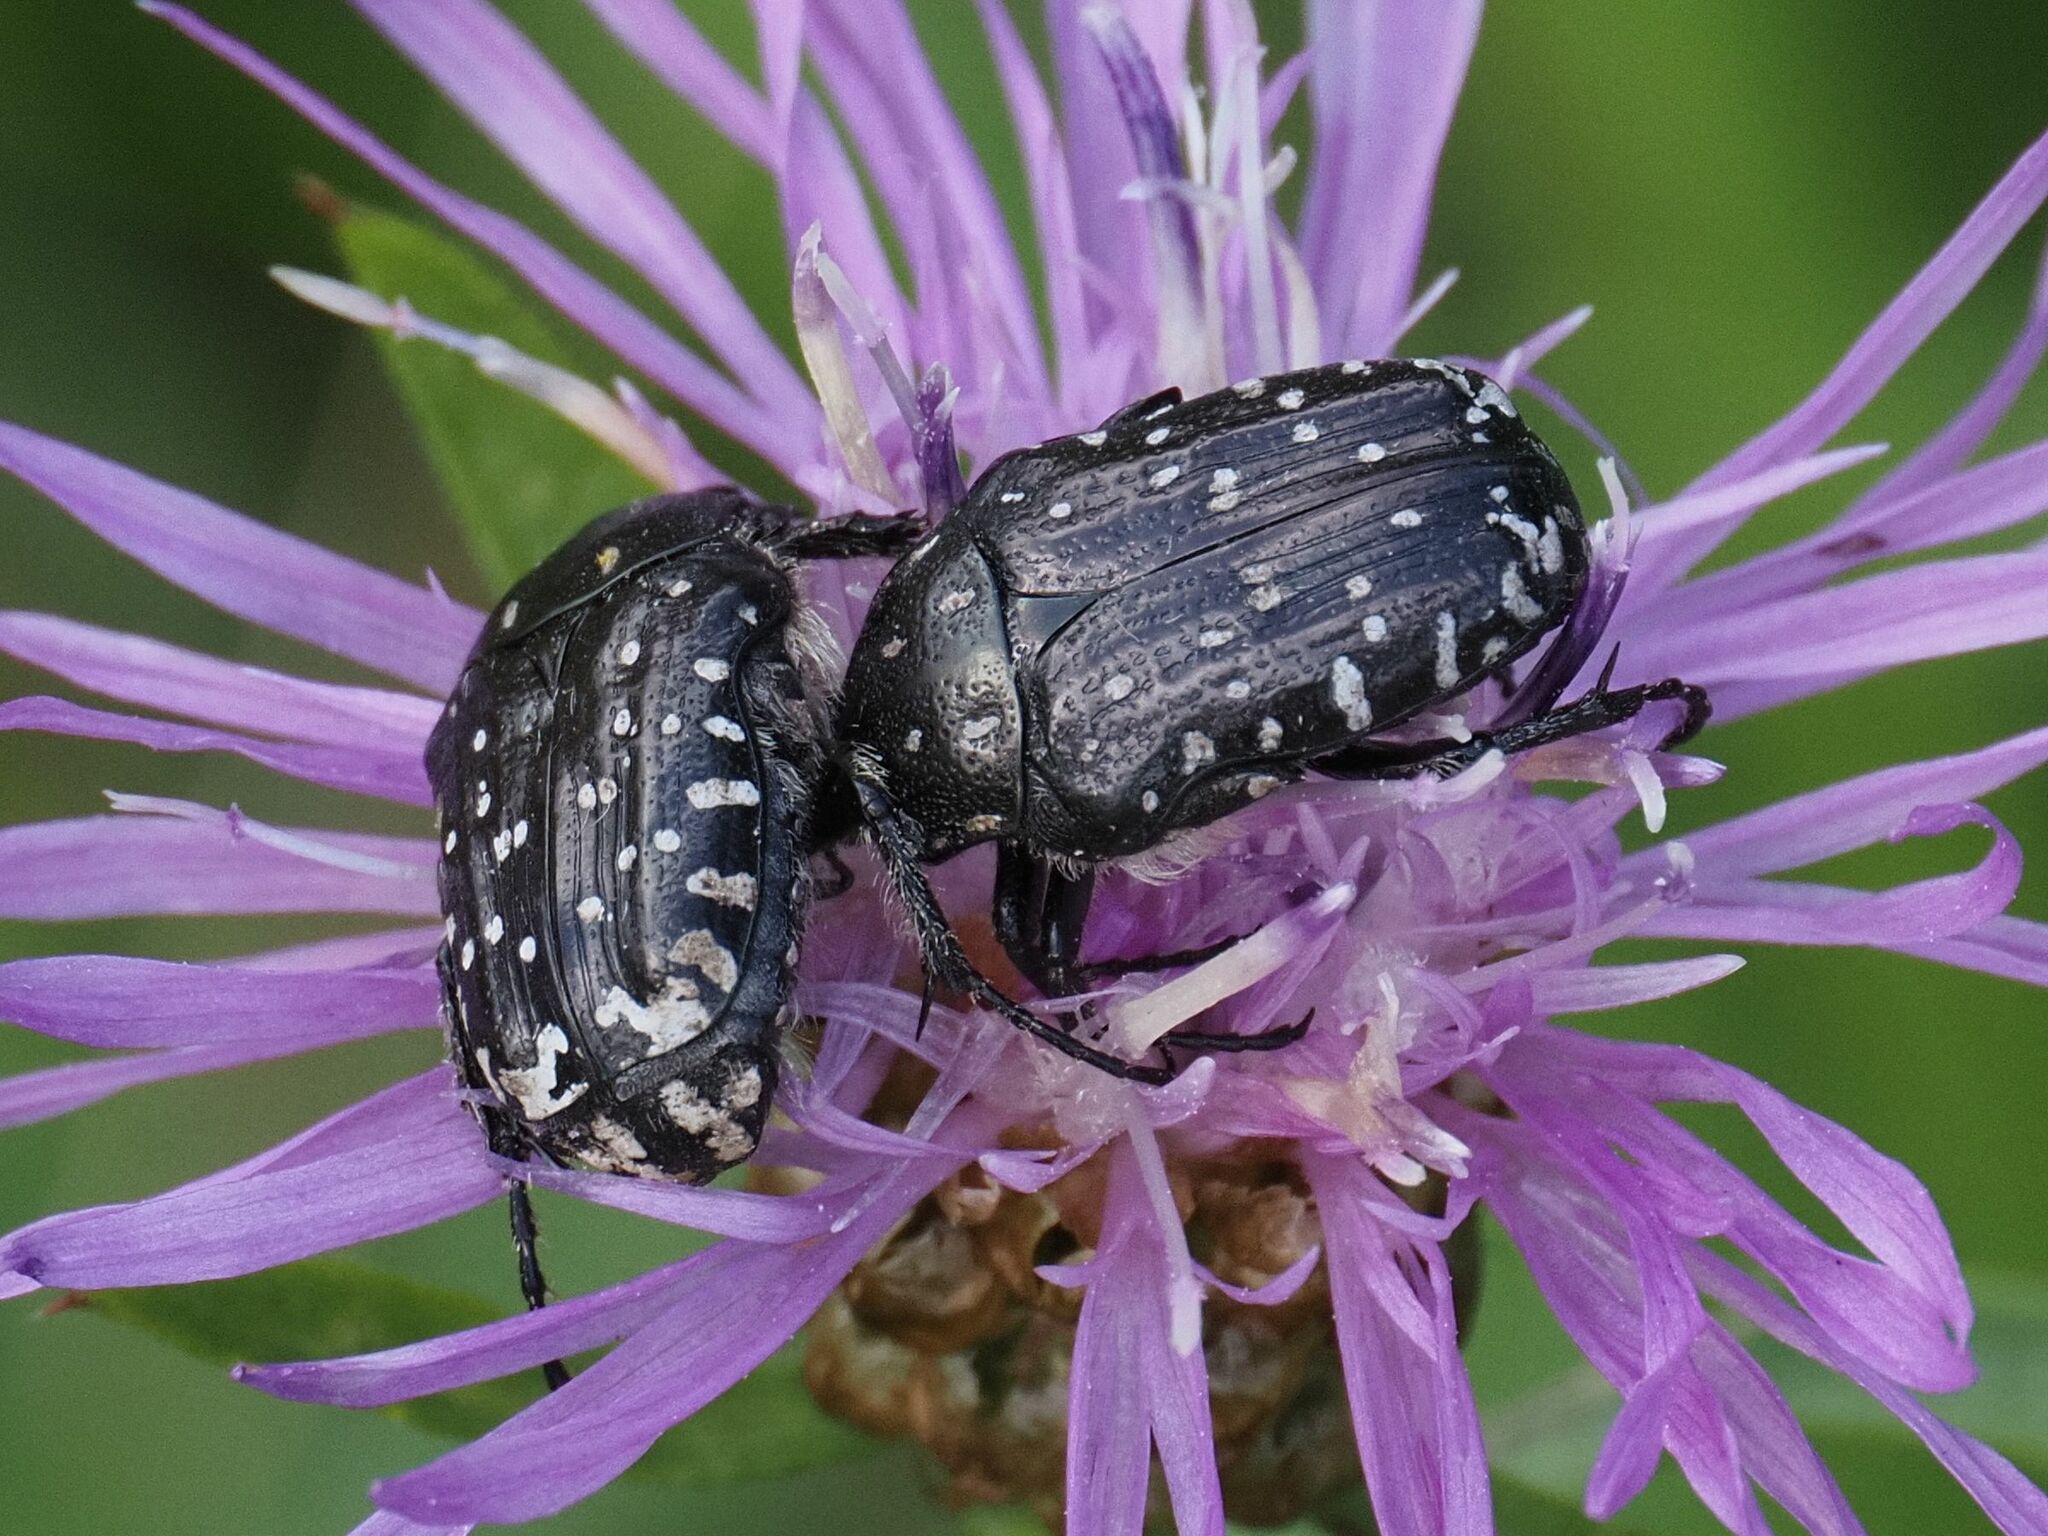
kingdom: Animalia
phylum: Arthropoda
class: Insecta
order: Coleoptera
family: Scarabaeidae
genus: Oxythyrea
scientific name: Oxythyrea funesta
